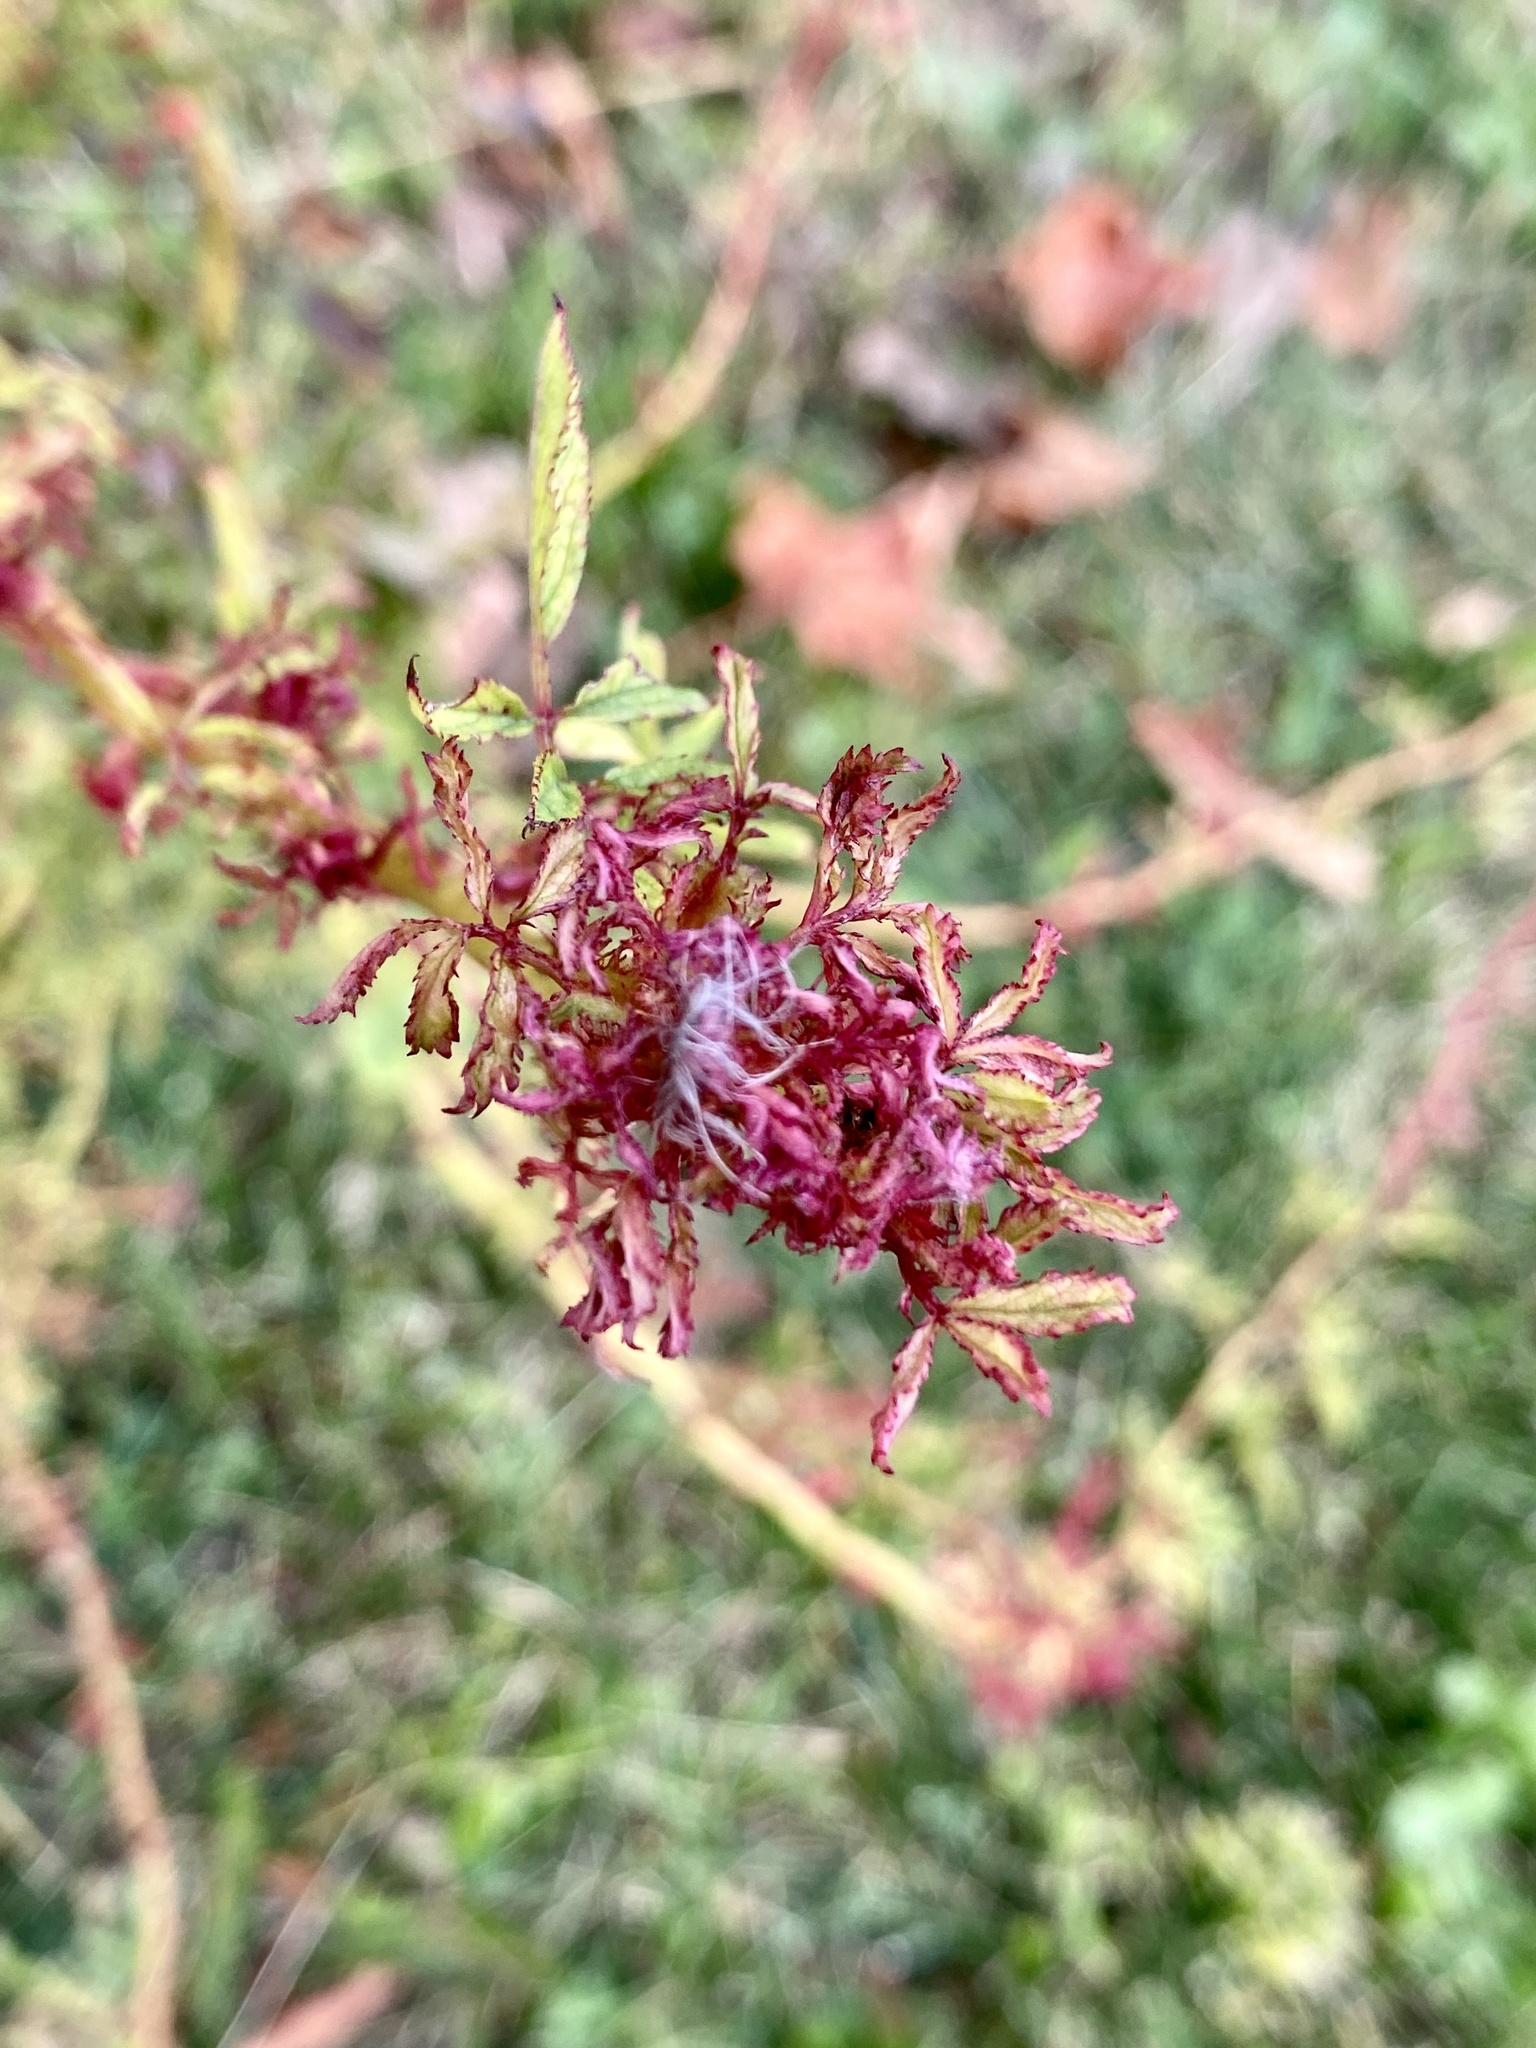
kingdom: Viruses
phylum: Negarnaviricota
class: Ellioviricetes
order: Bunyavirales
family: Fimoviridae
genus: Emaravirus
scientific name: Emaravirus rosae
